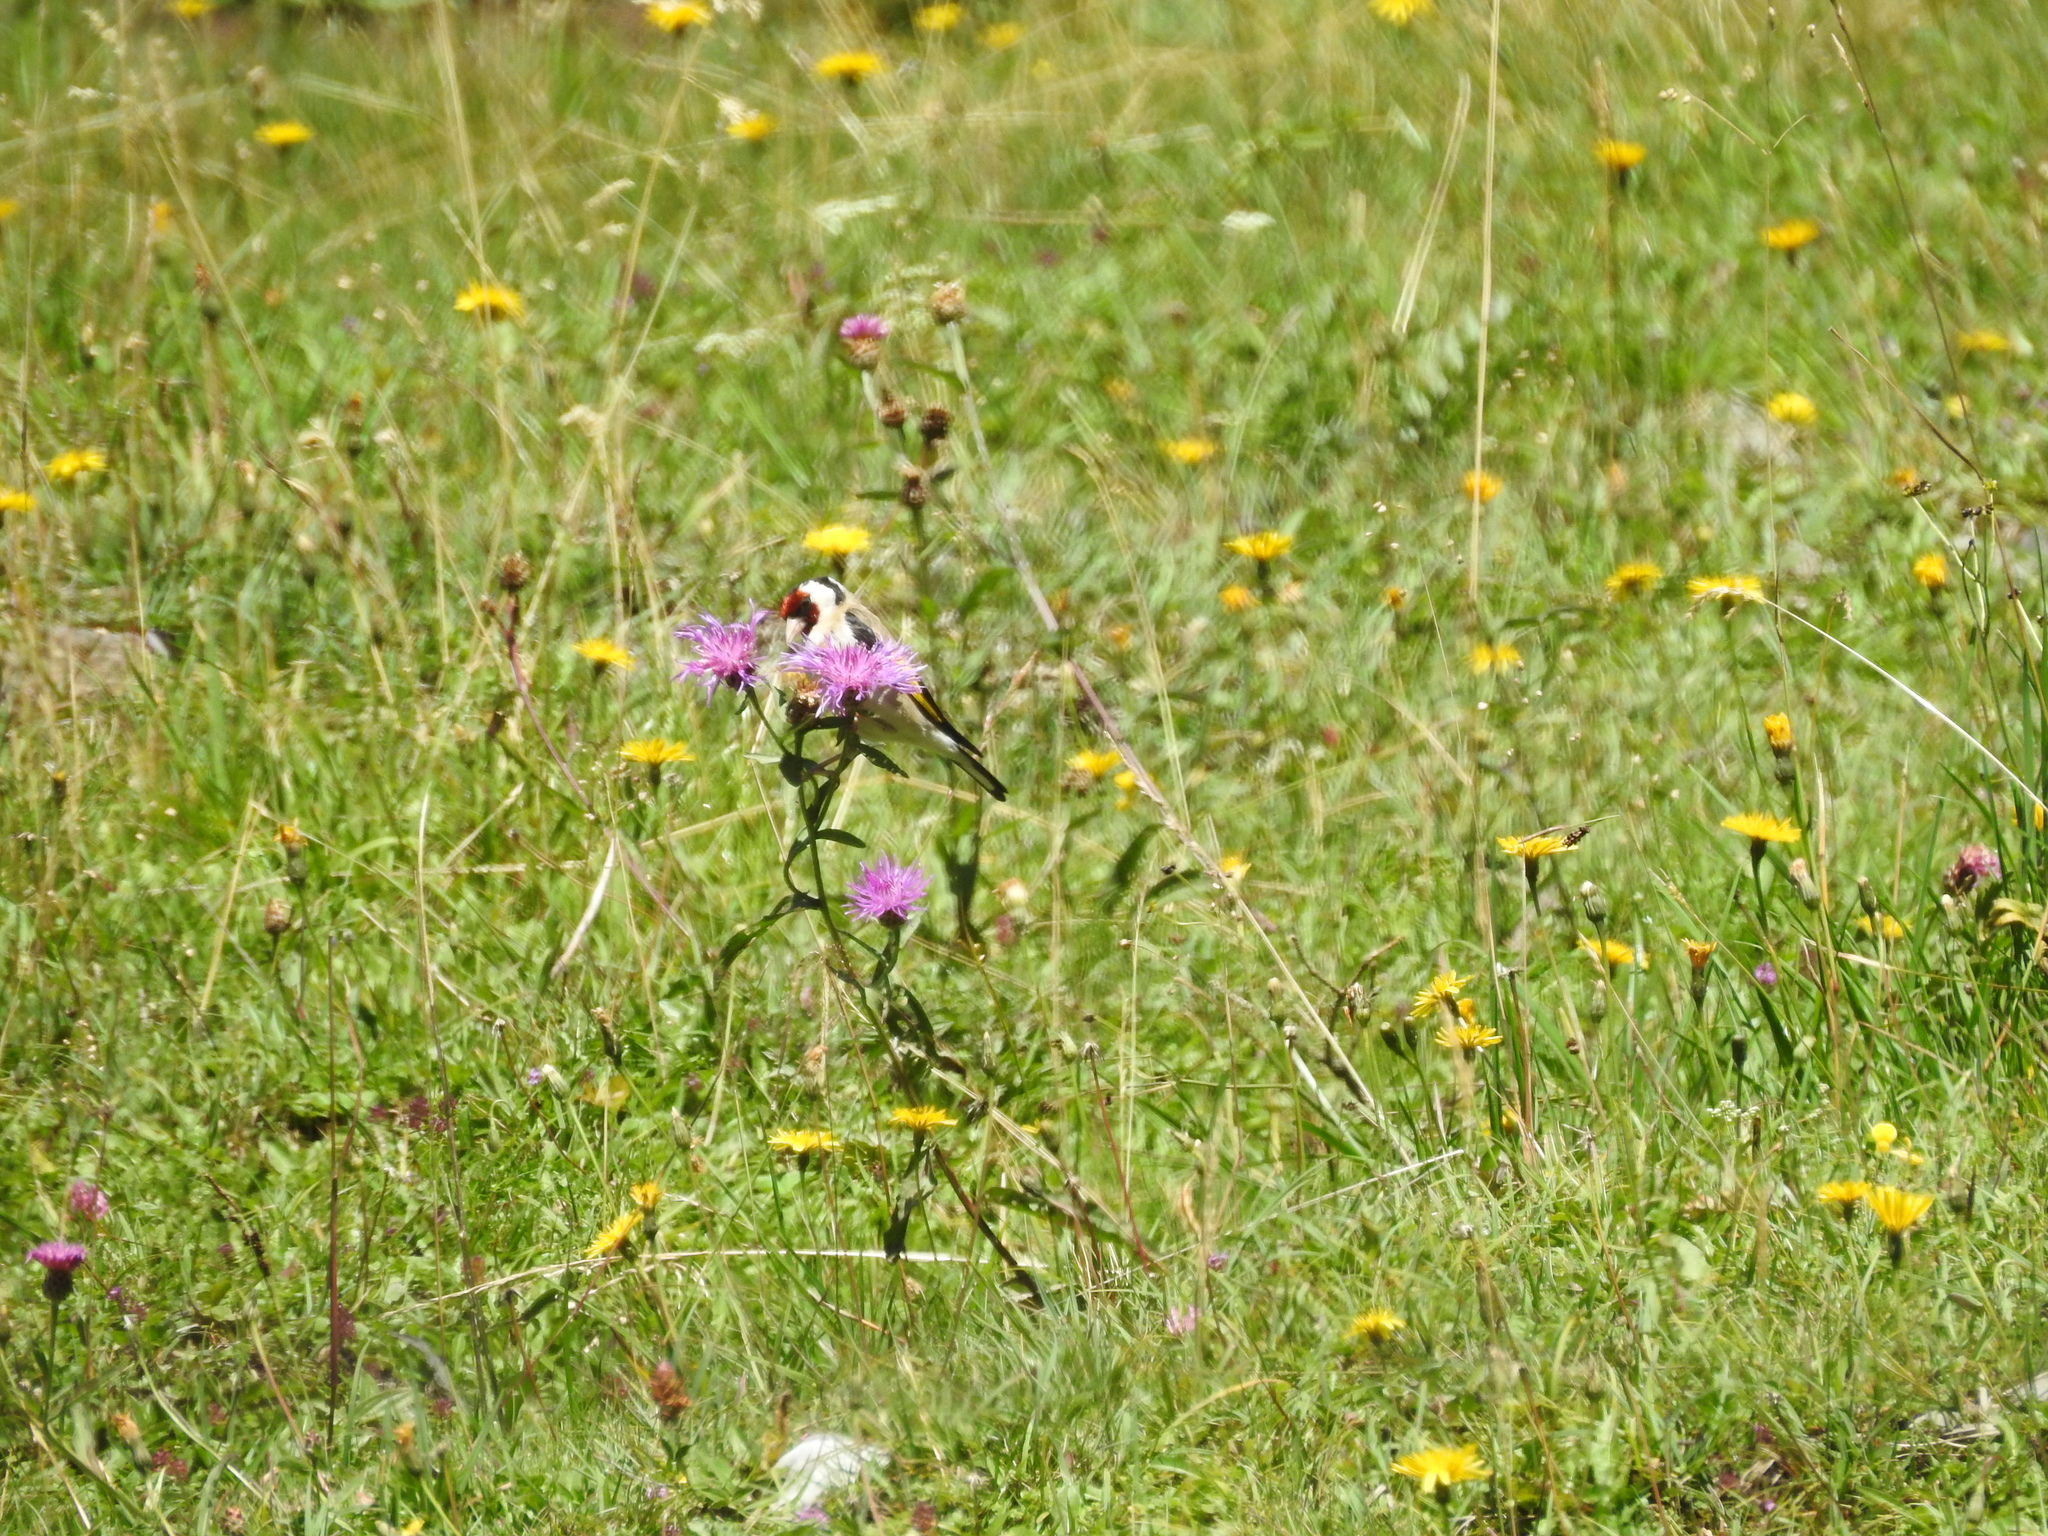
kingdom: Animalia
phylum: Chordata
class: Aves
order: Passeriformes
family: Fringillidae
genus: Carduelis
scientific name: Carduelis carduelis
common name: European goldfinch
